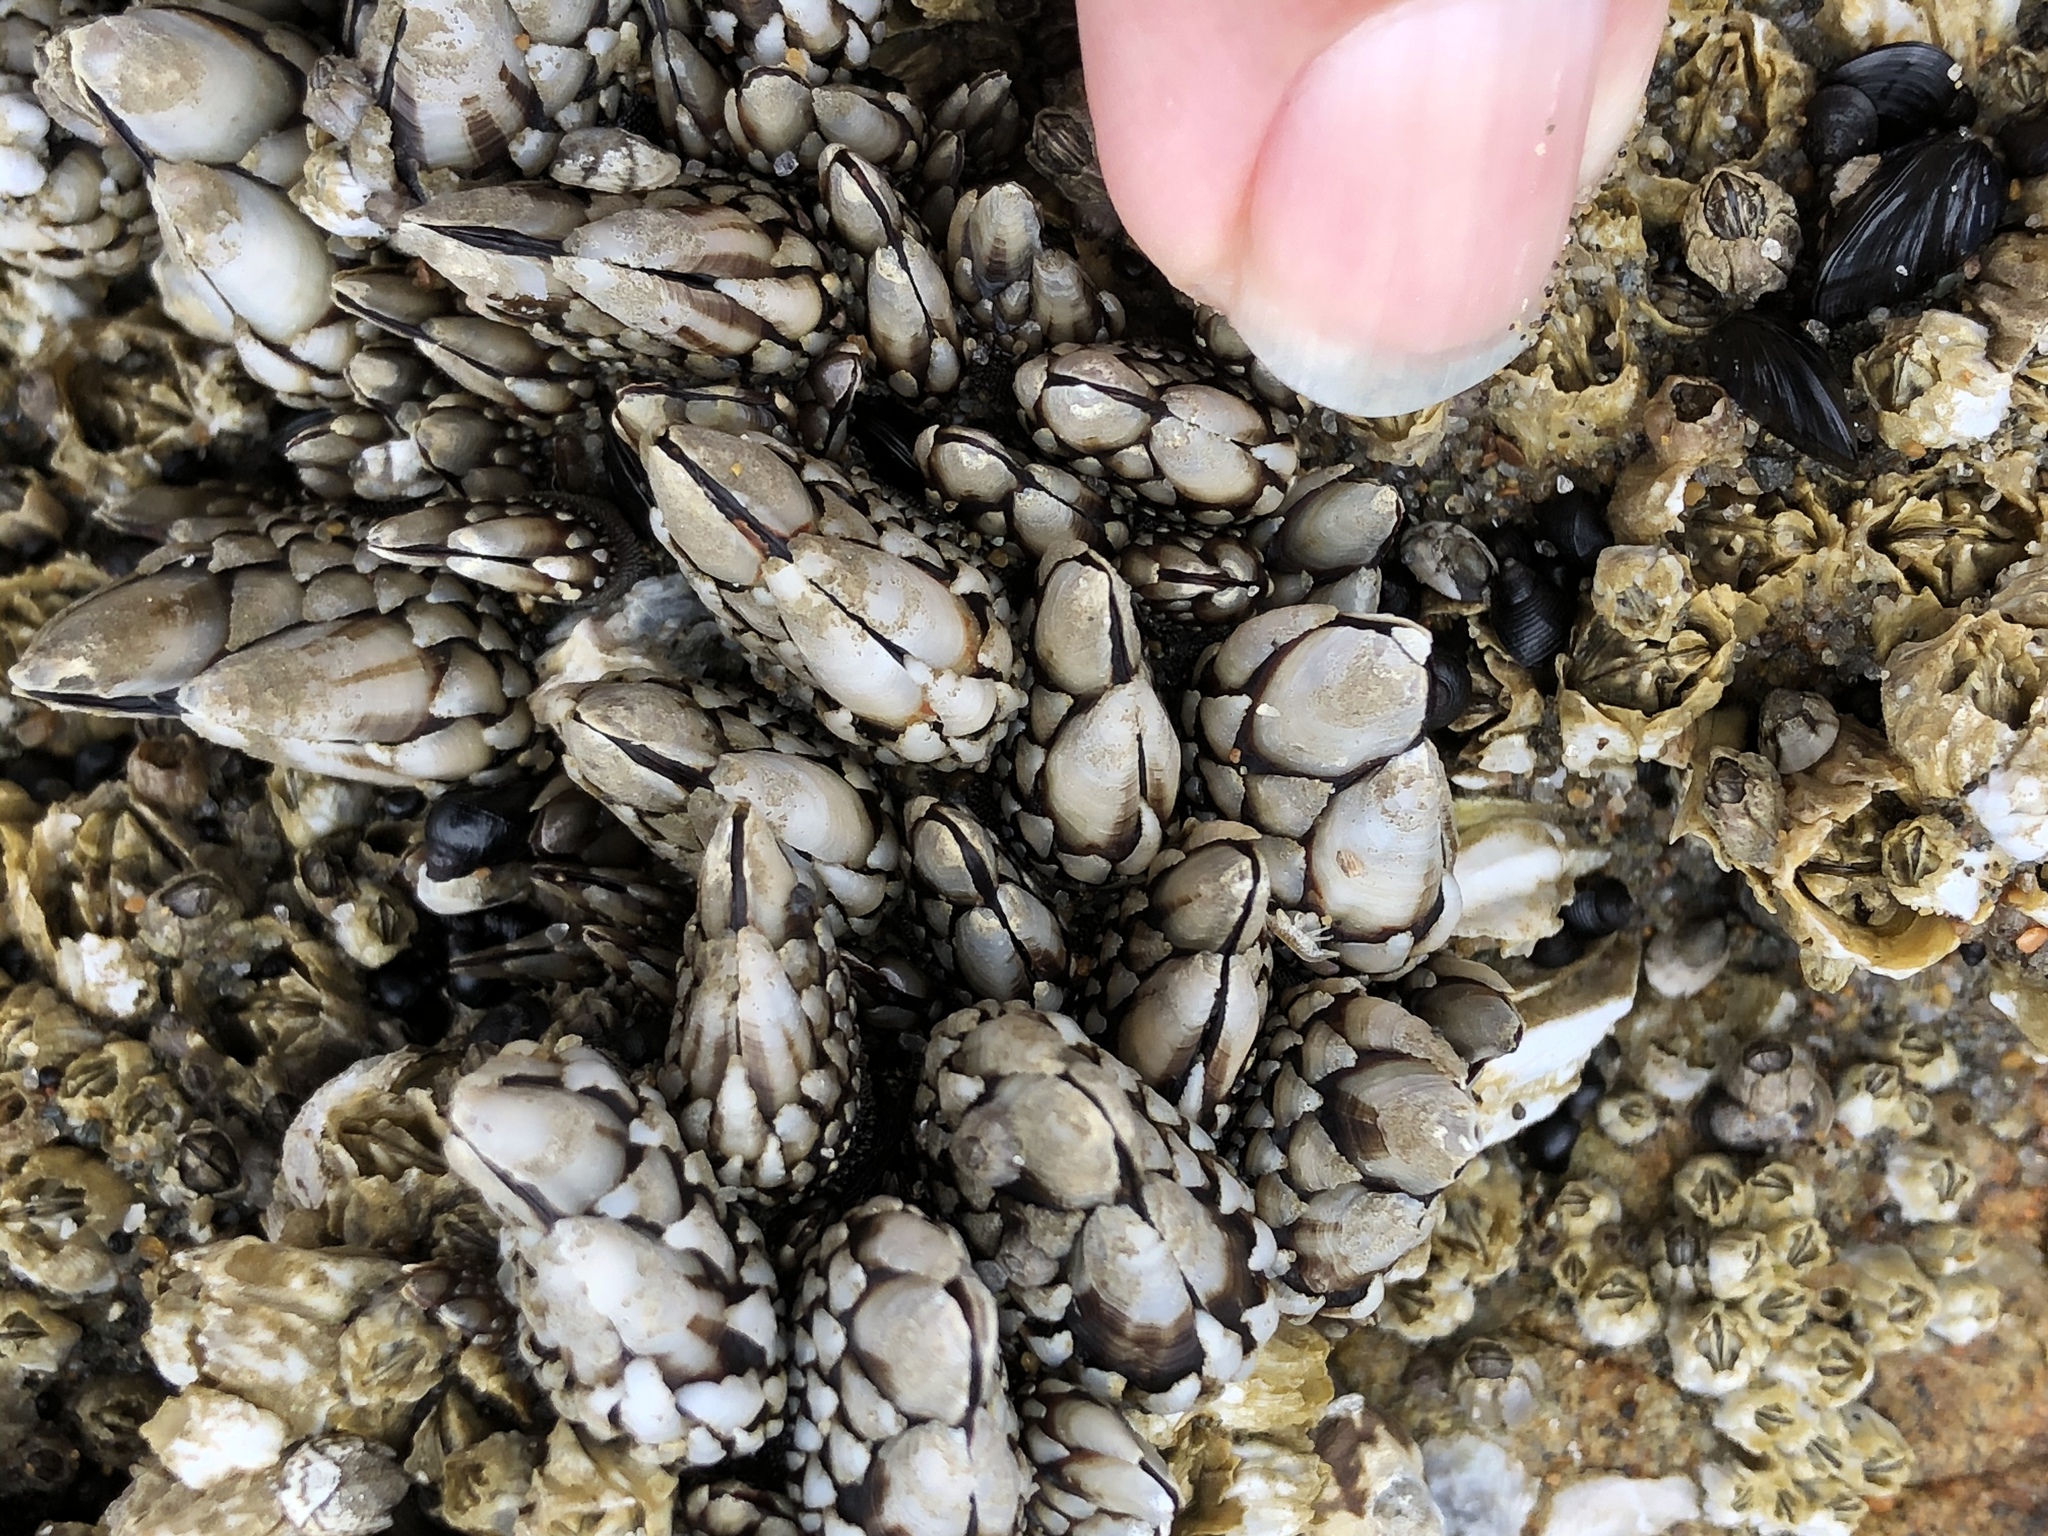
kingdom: Animalia
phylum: Arthropoda
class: Maxillopoda
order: Pedunculata
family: Pollicipedidae
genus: Pollicipes
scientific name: Pollicipes polymerus
